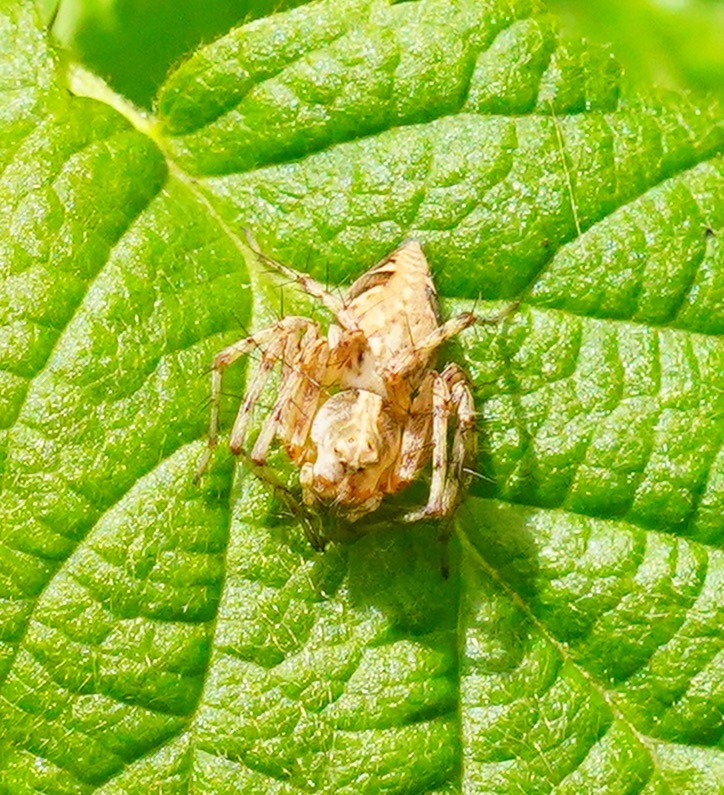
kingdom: Animalia
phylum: Arthropoda
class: Arachnida
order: Araneae
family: Oxyopidae
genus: Oxyopes
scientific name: Oxyopes scalaris
